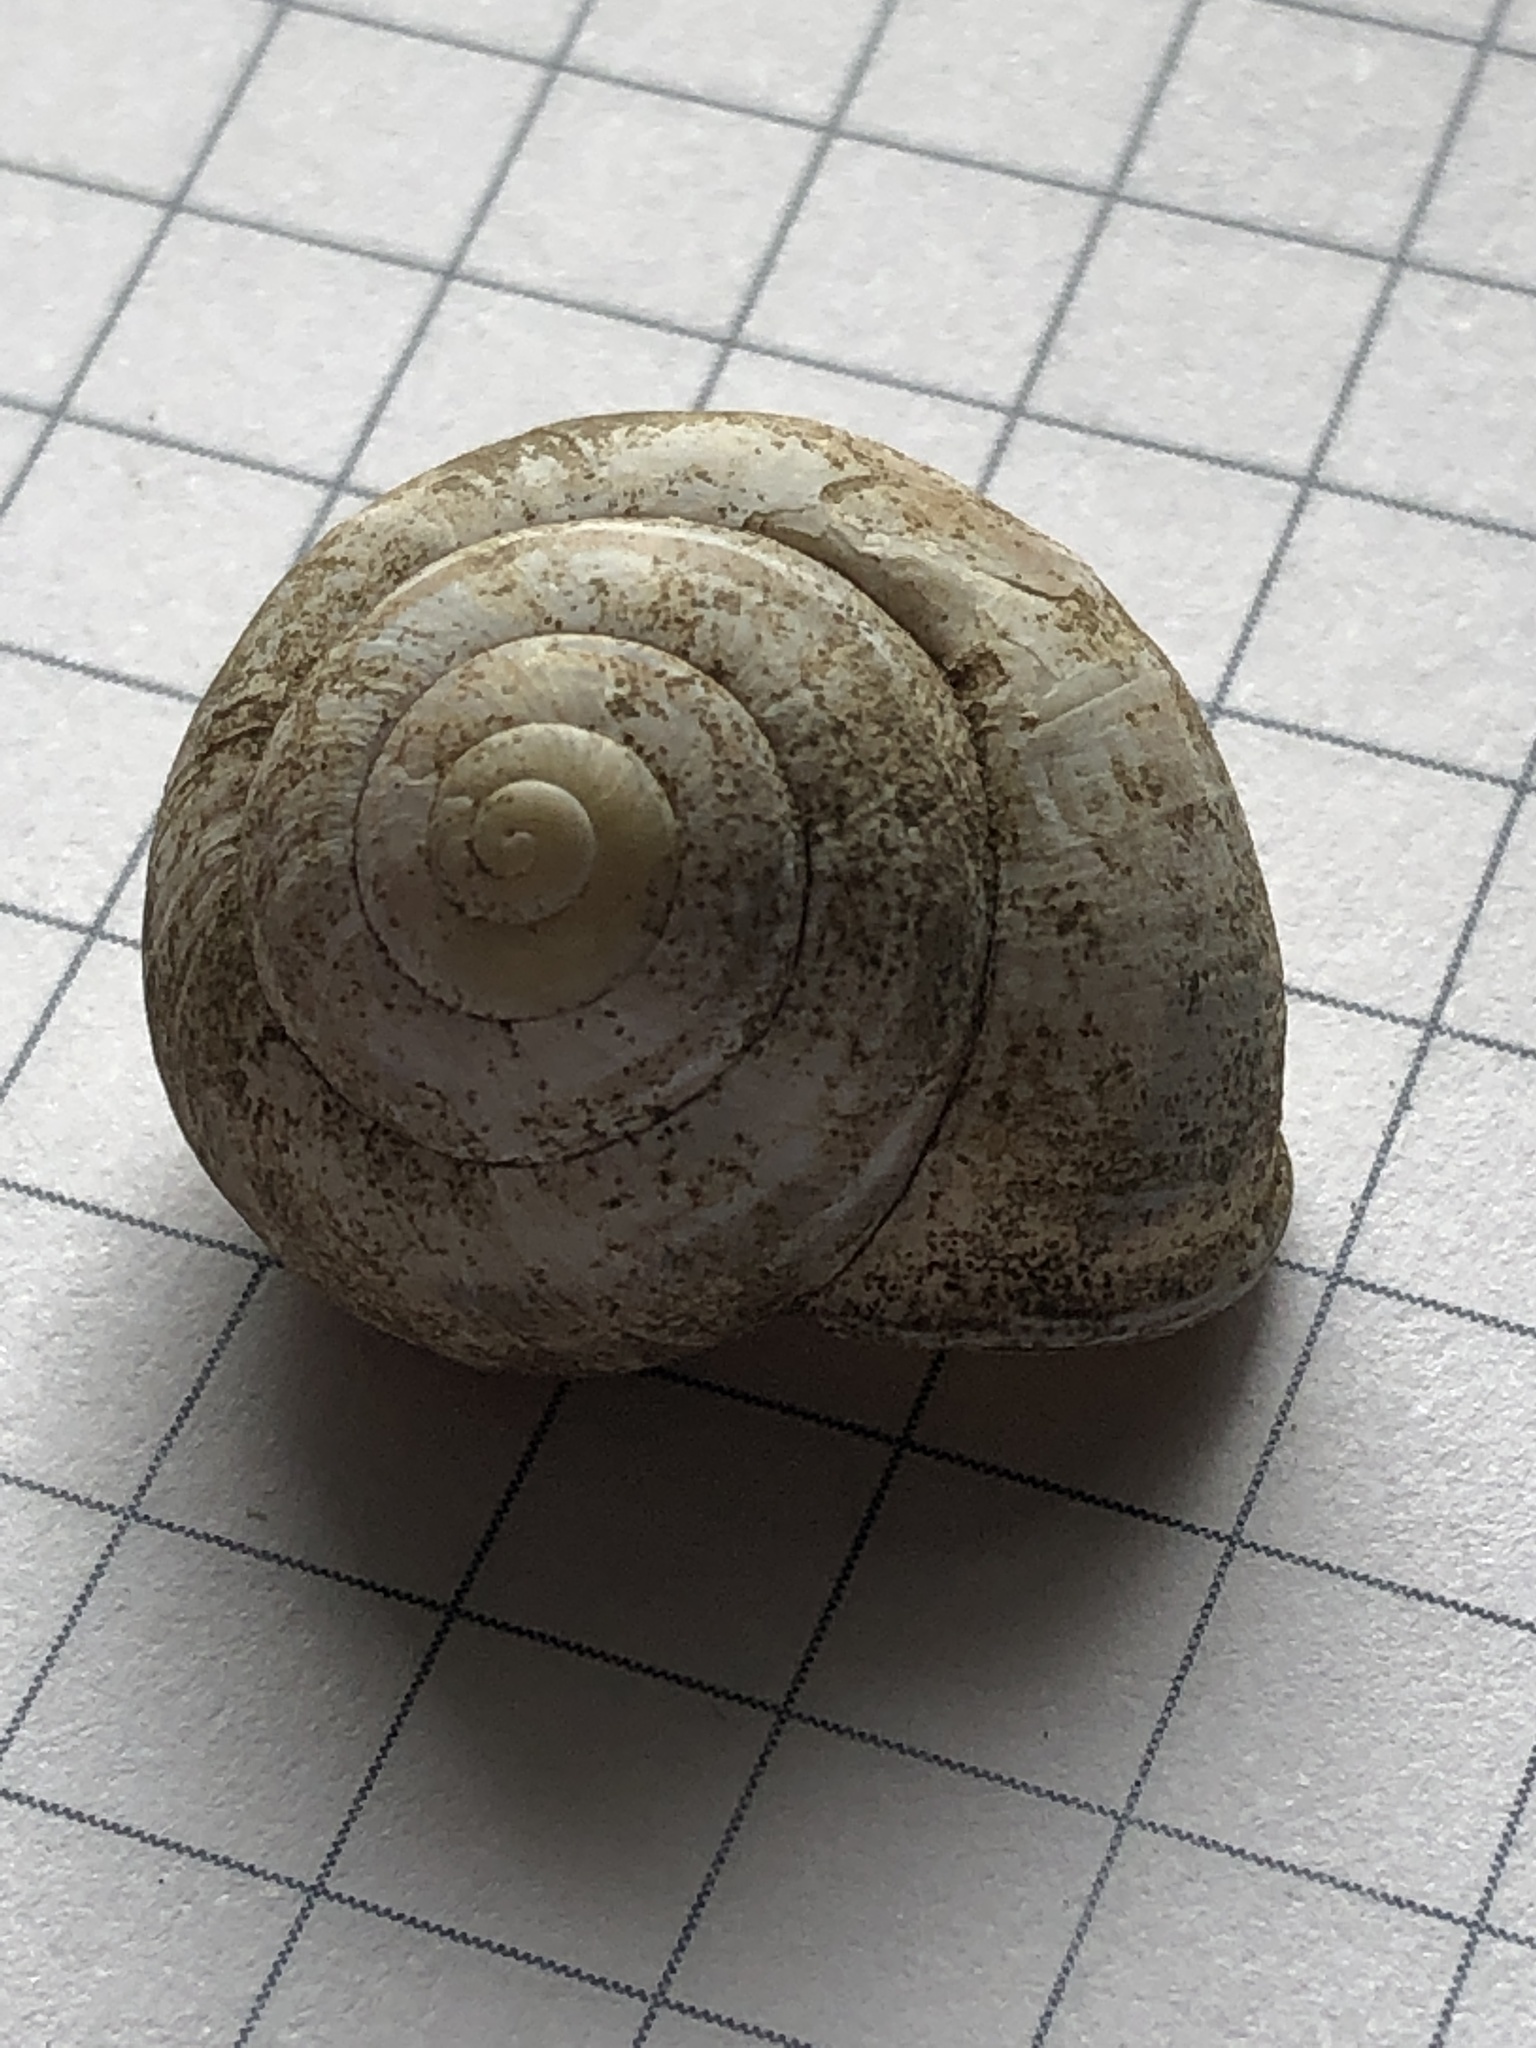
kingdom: Animalia
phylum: Mollusca
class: Gastropoda
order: Stylommatophora
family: Helicidae
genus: Cepaea
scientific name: Cepaea nemoralis
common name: Grovesnail
